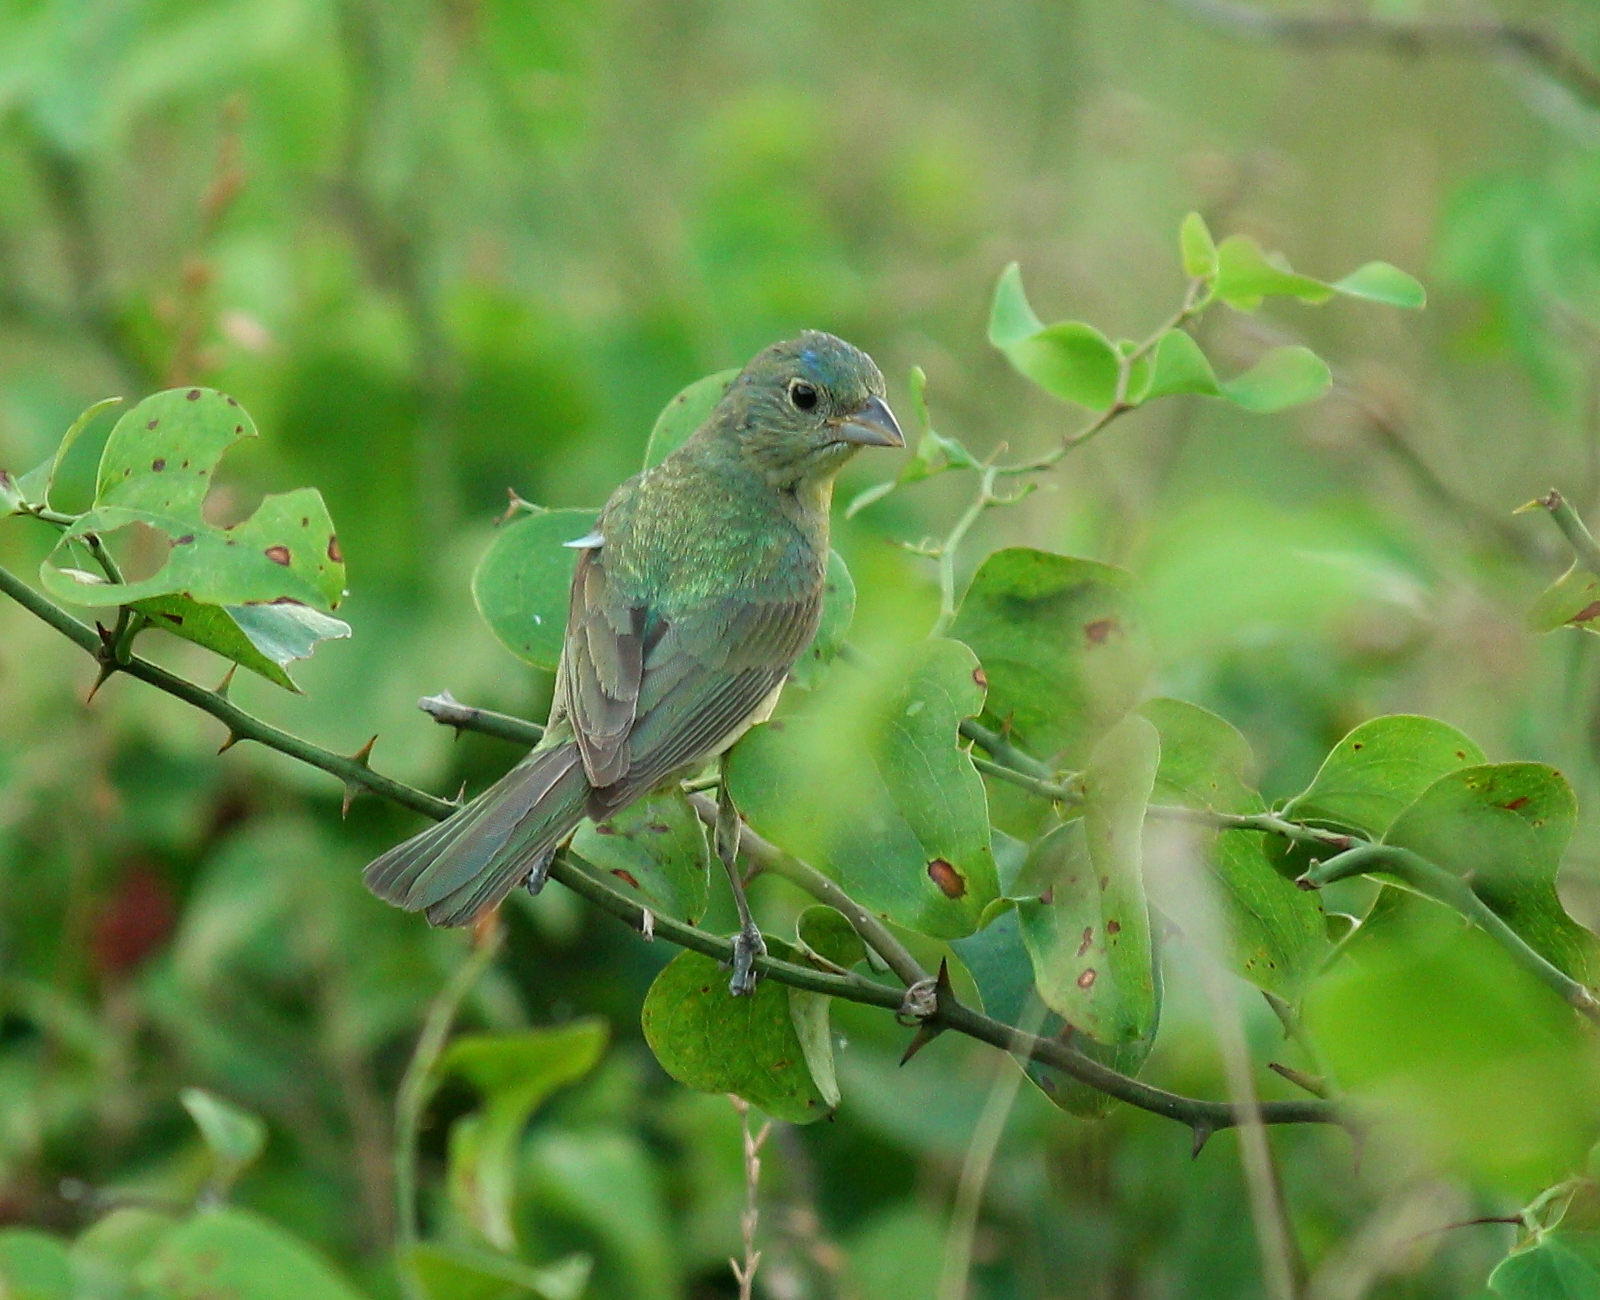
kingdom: Animalia
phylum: Chordata
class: Aves
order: Passeriformes
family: Cardinalidae
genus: Passerina
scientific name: Passerina ciris
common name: Painted bunting
